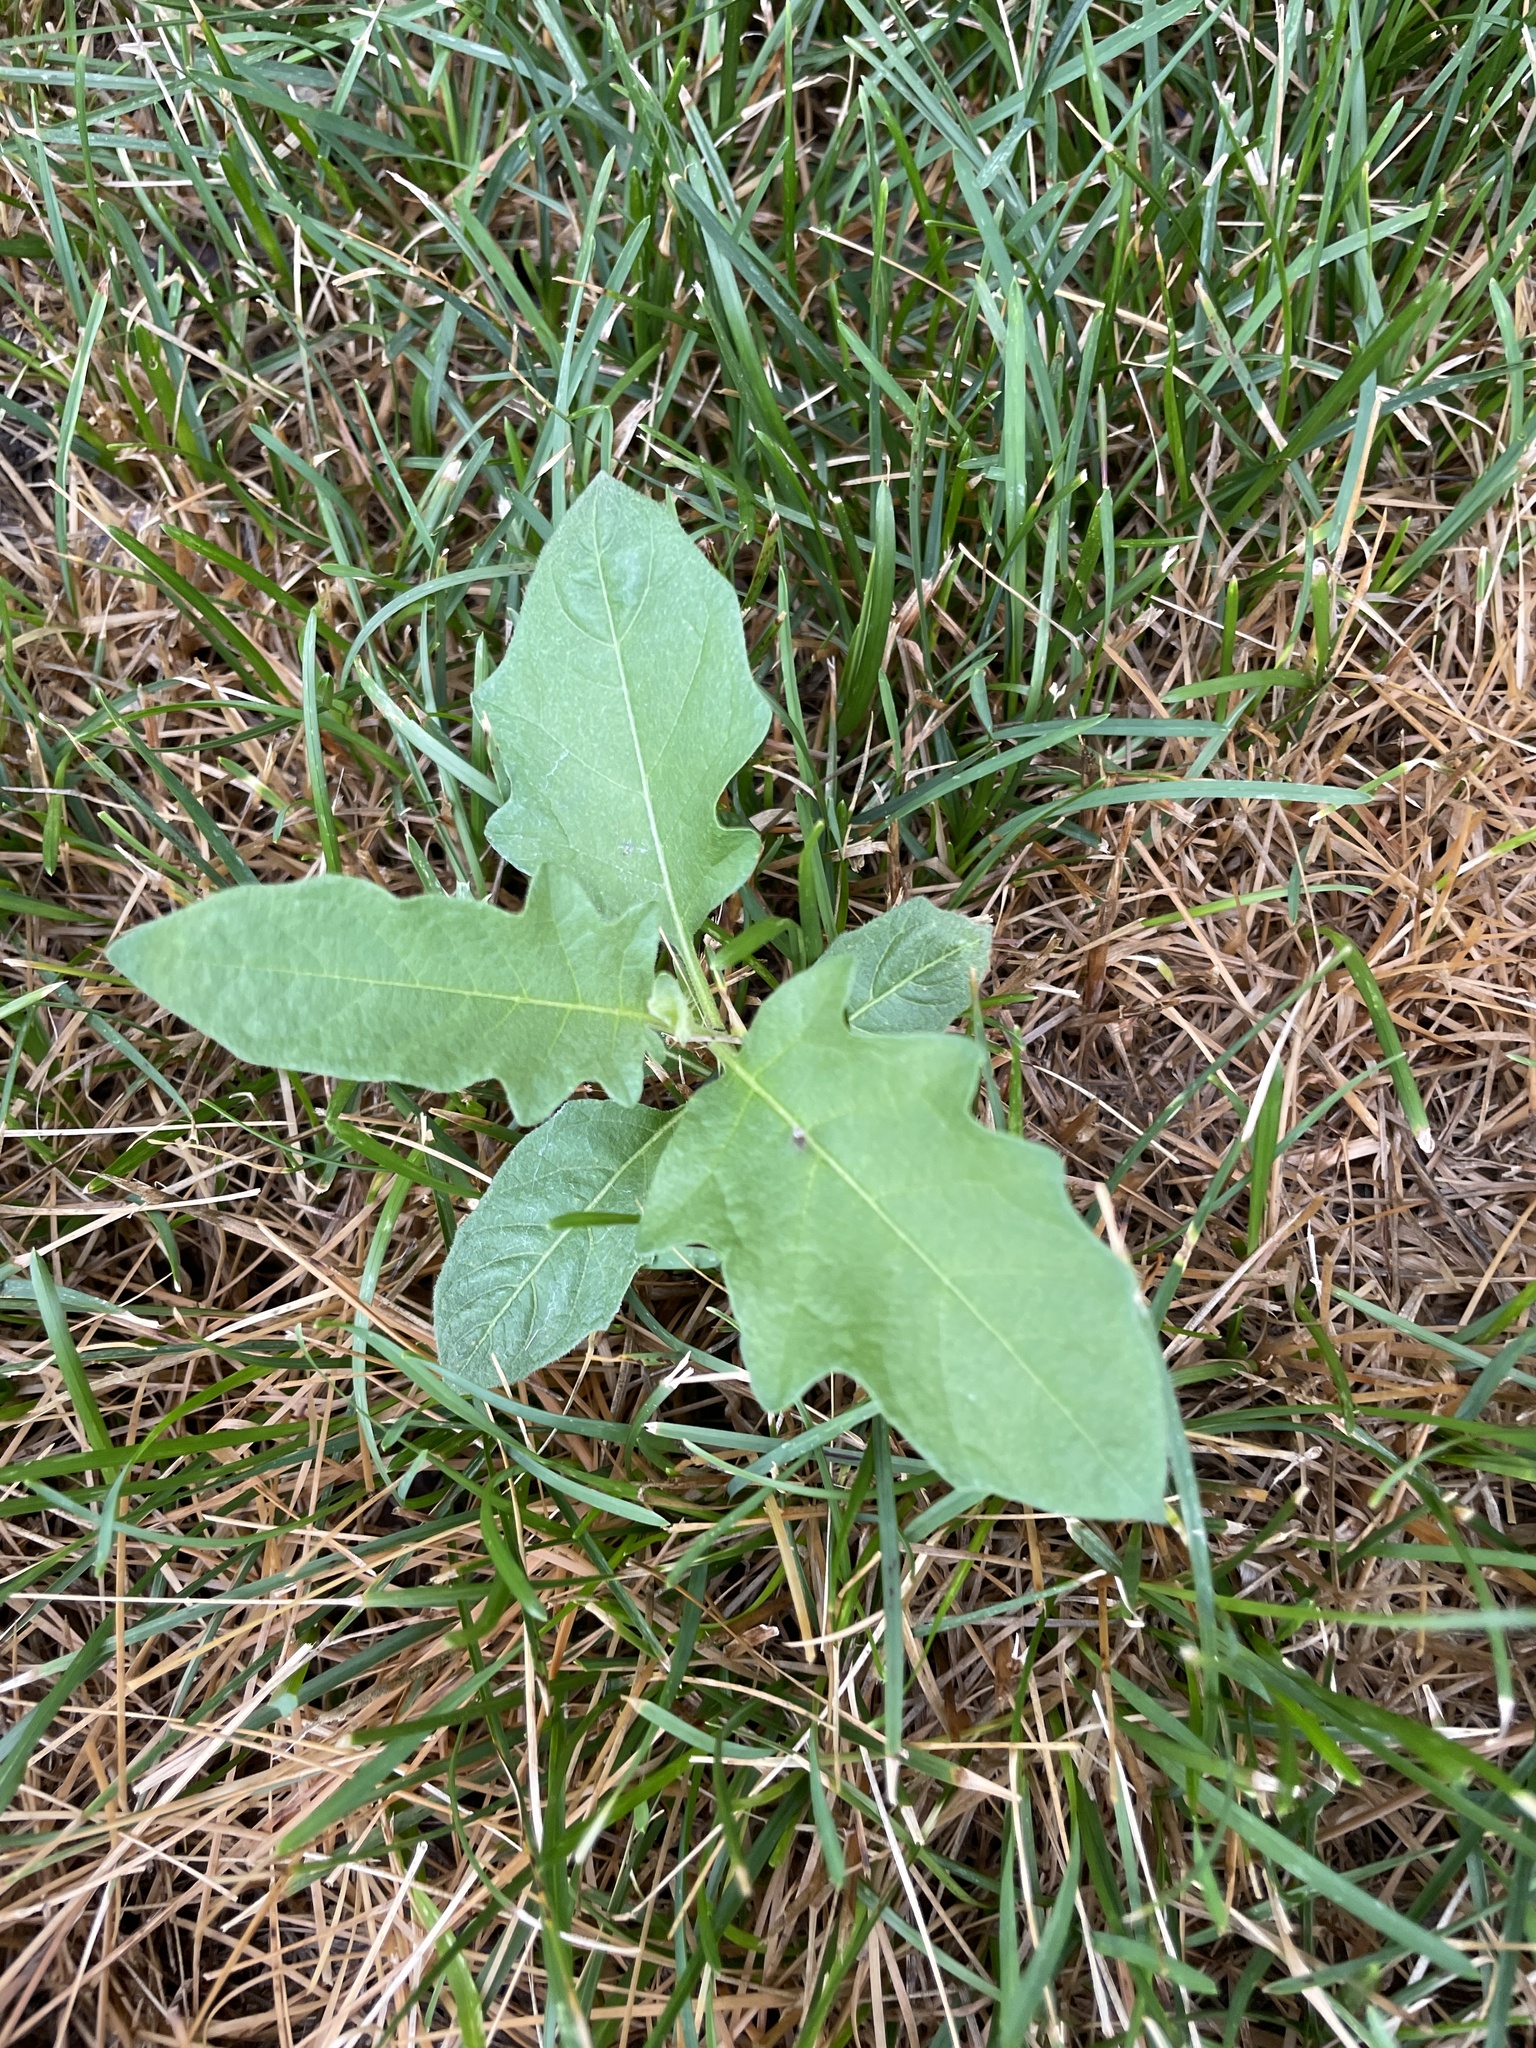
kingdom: Plantae
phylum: Tracheophyta
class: Magnoliopsida
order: Solanales
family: Solanaceae
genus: Solanum
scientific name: Solanum carolinense
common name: Horse-nettle
